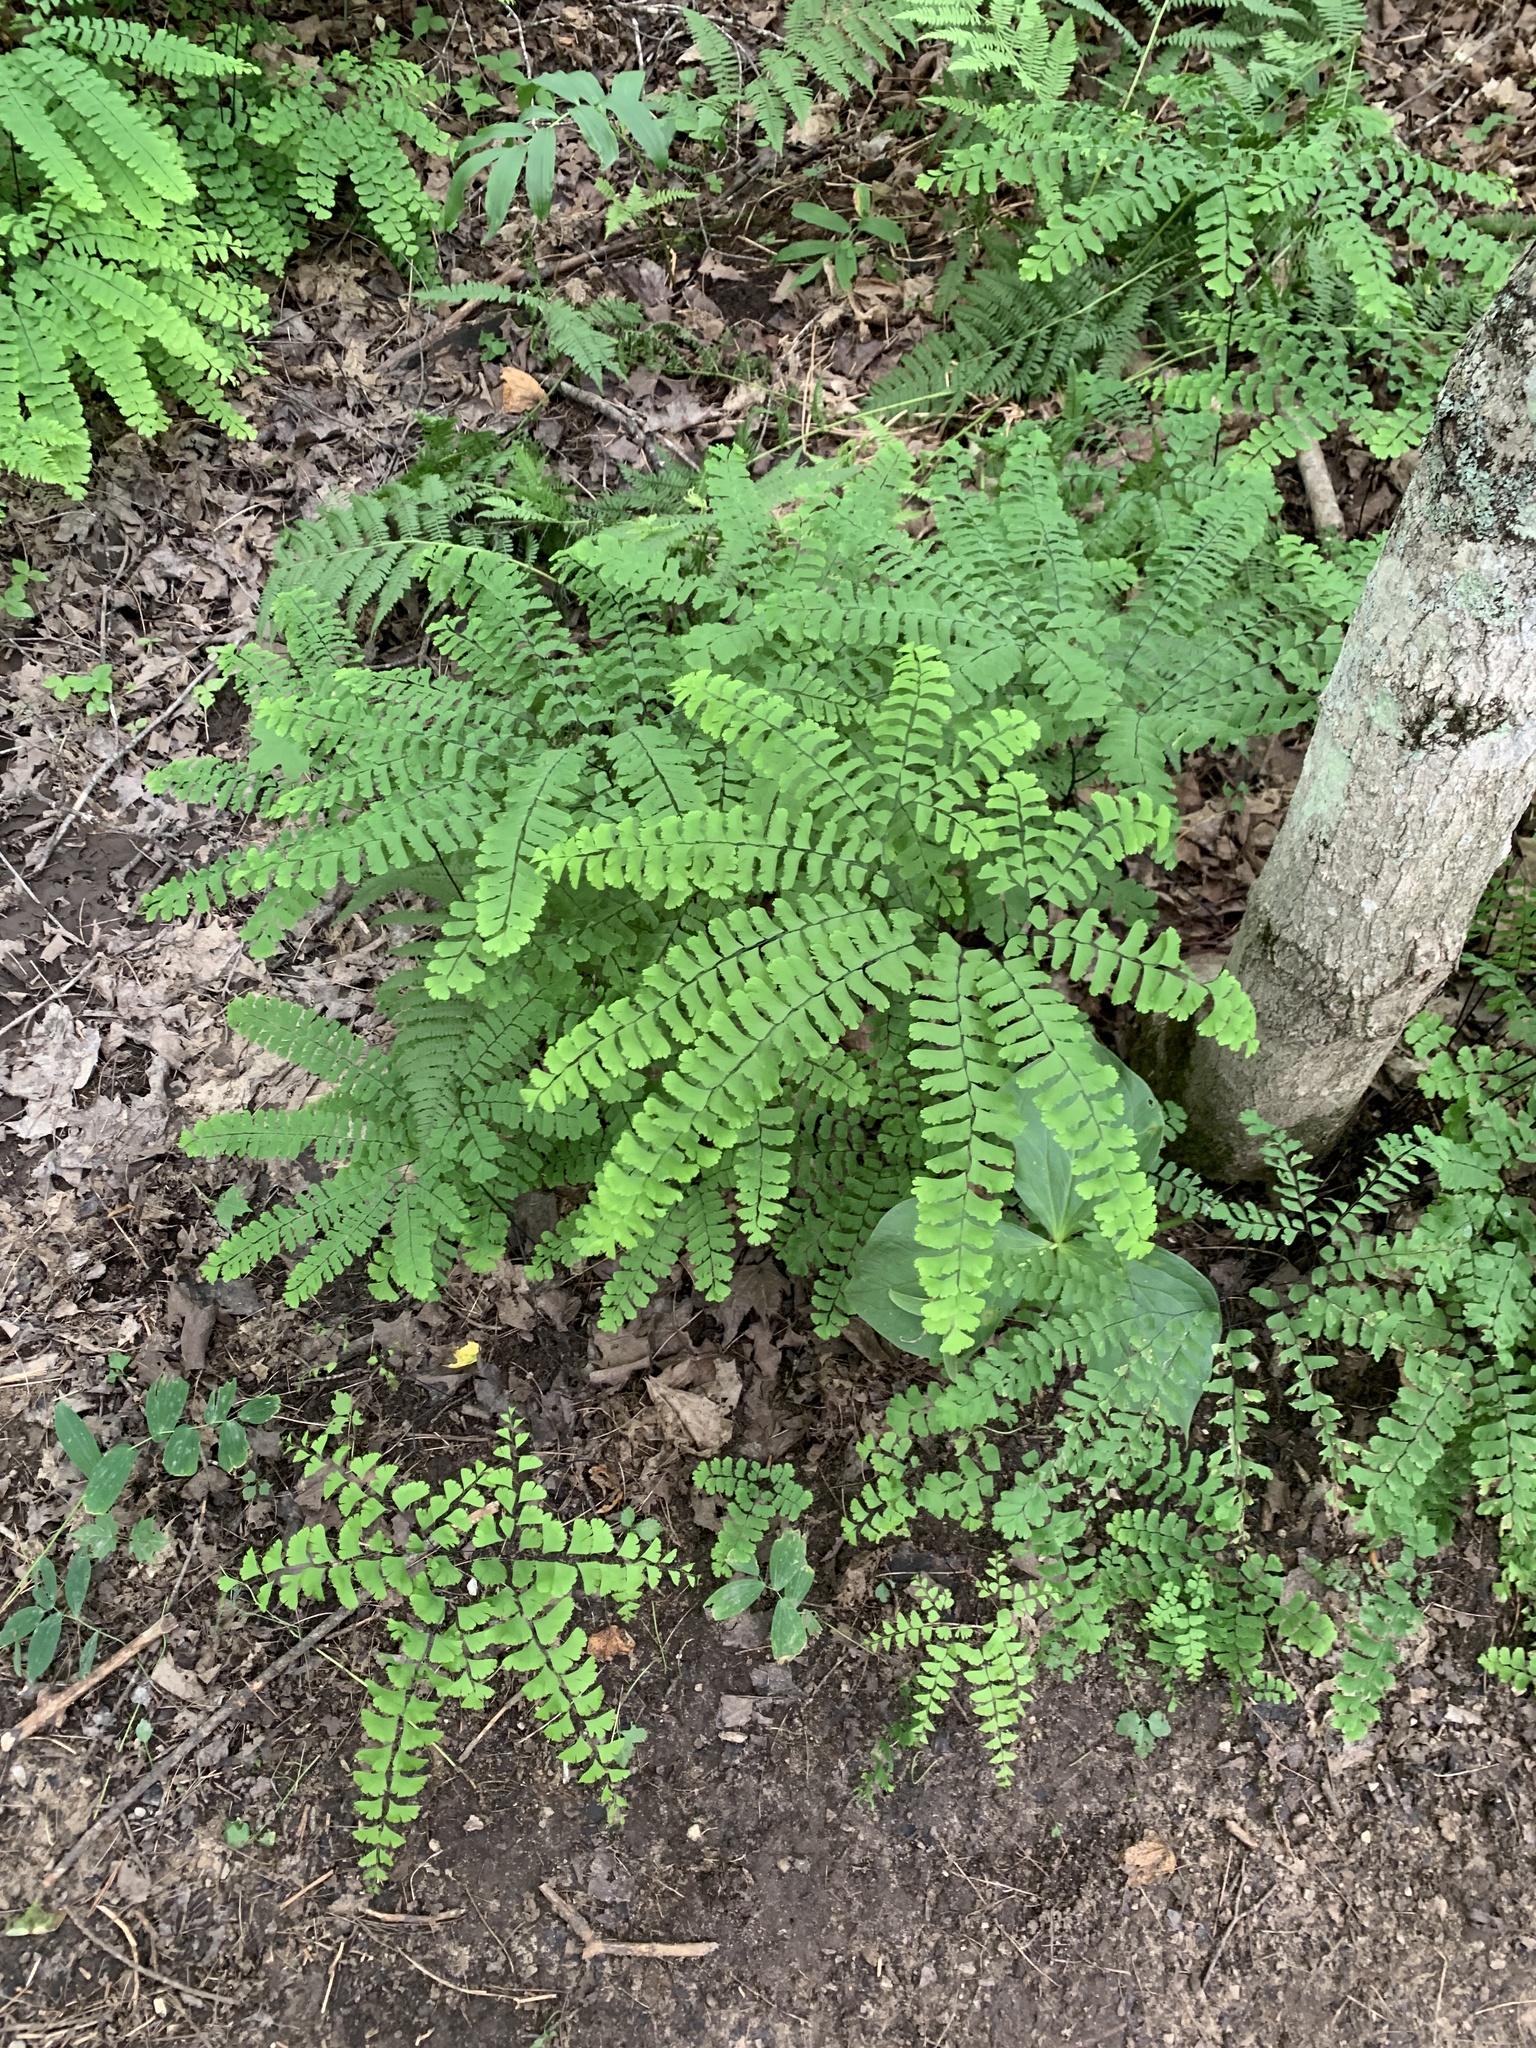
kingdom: Plantae
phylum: Tracheophyta
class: Polypodiopsida
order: Polypodiales
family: Pteridaceae
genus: Adiantum
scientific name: Adiantum pedatum
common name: Five-finger fern
